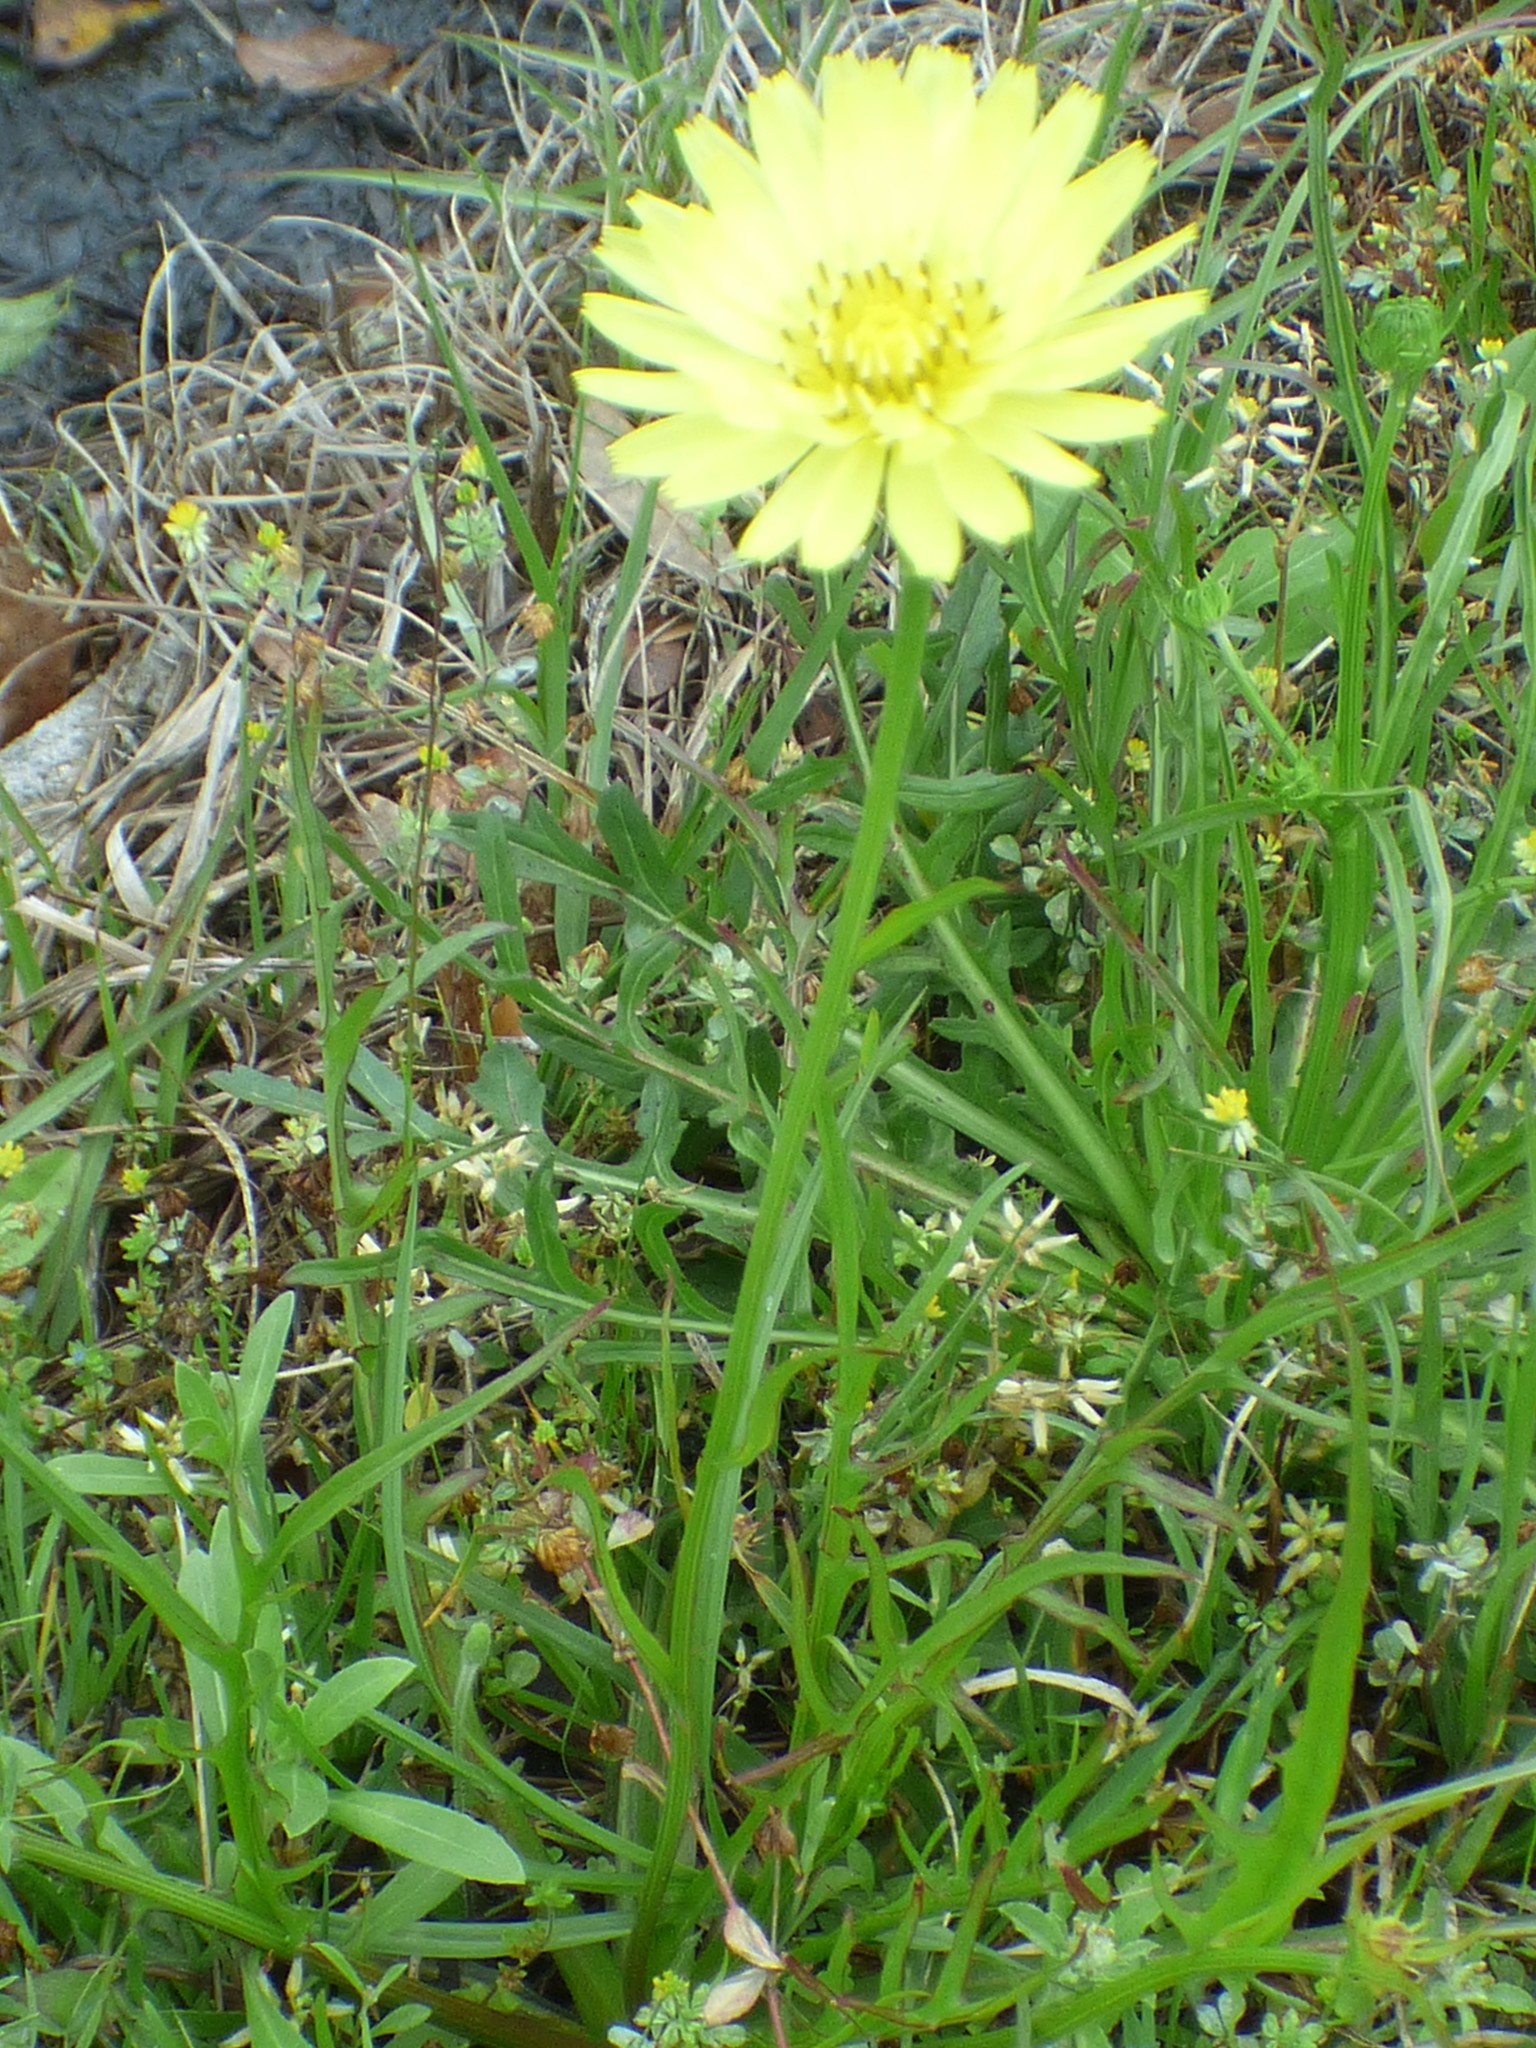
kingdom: Plantae
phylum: Tracheophyta
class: Magnoliopsida
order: Asterales
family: Asteraceae
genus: Pyrrhopappus
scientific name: Pyrrhopappus carolinianus
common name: Carolina desert-chicory
